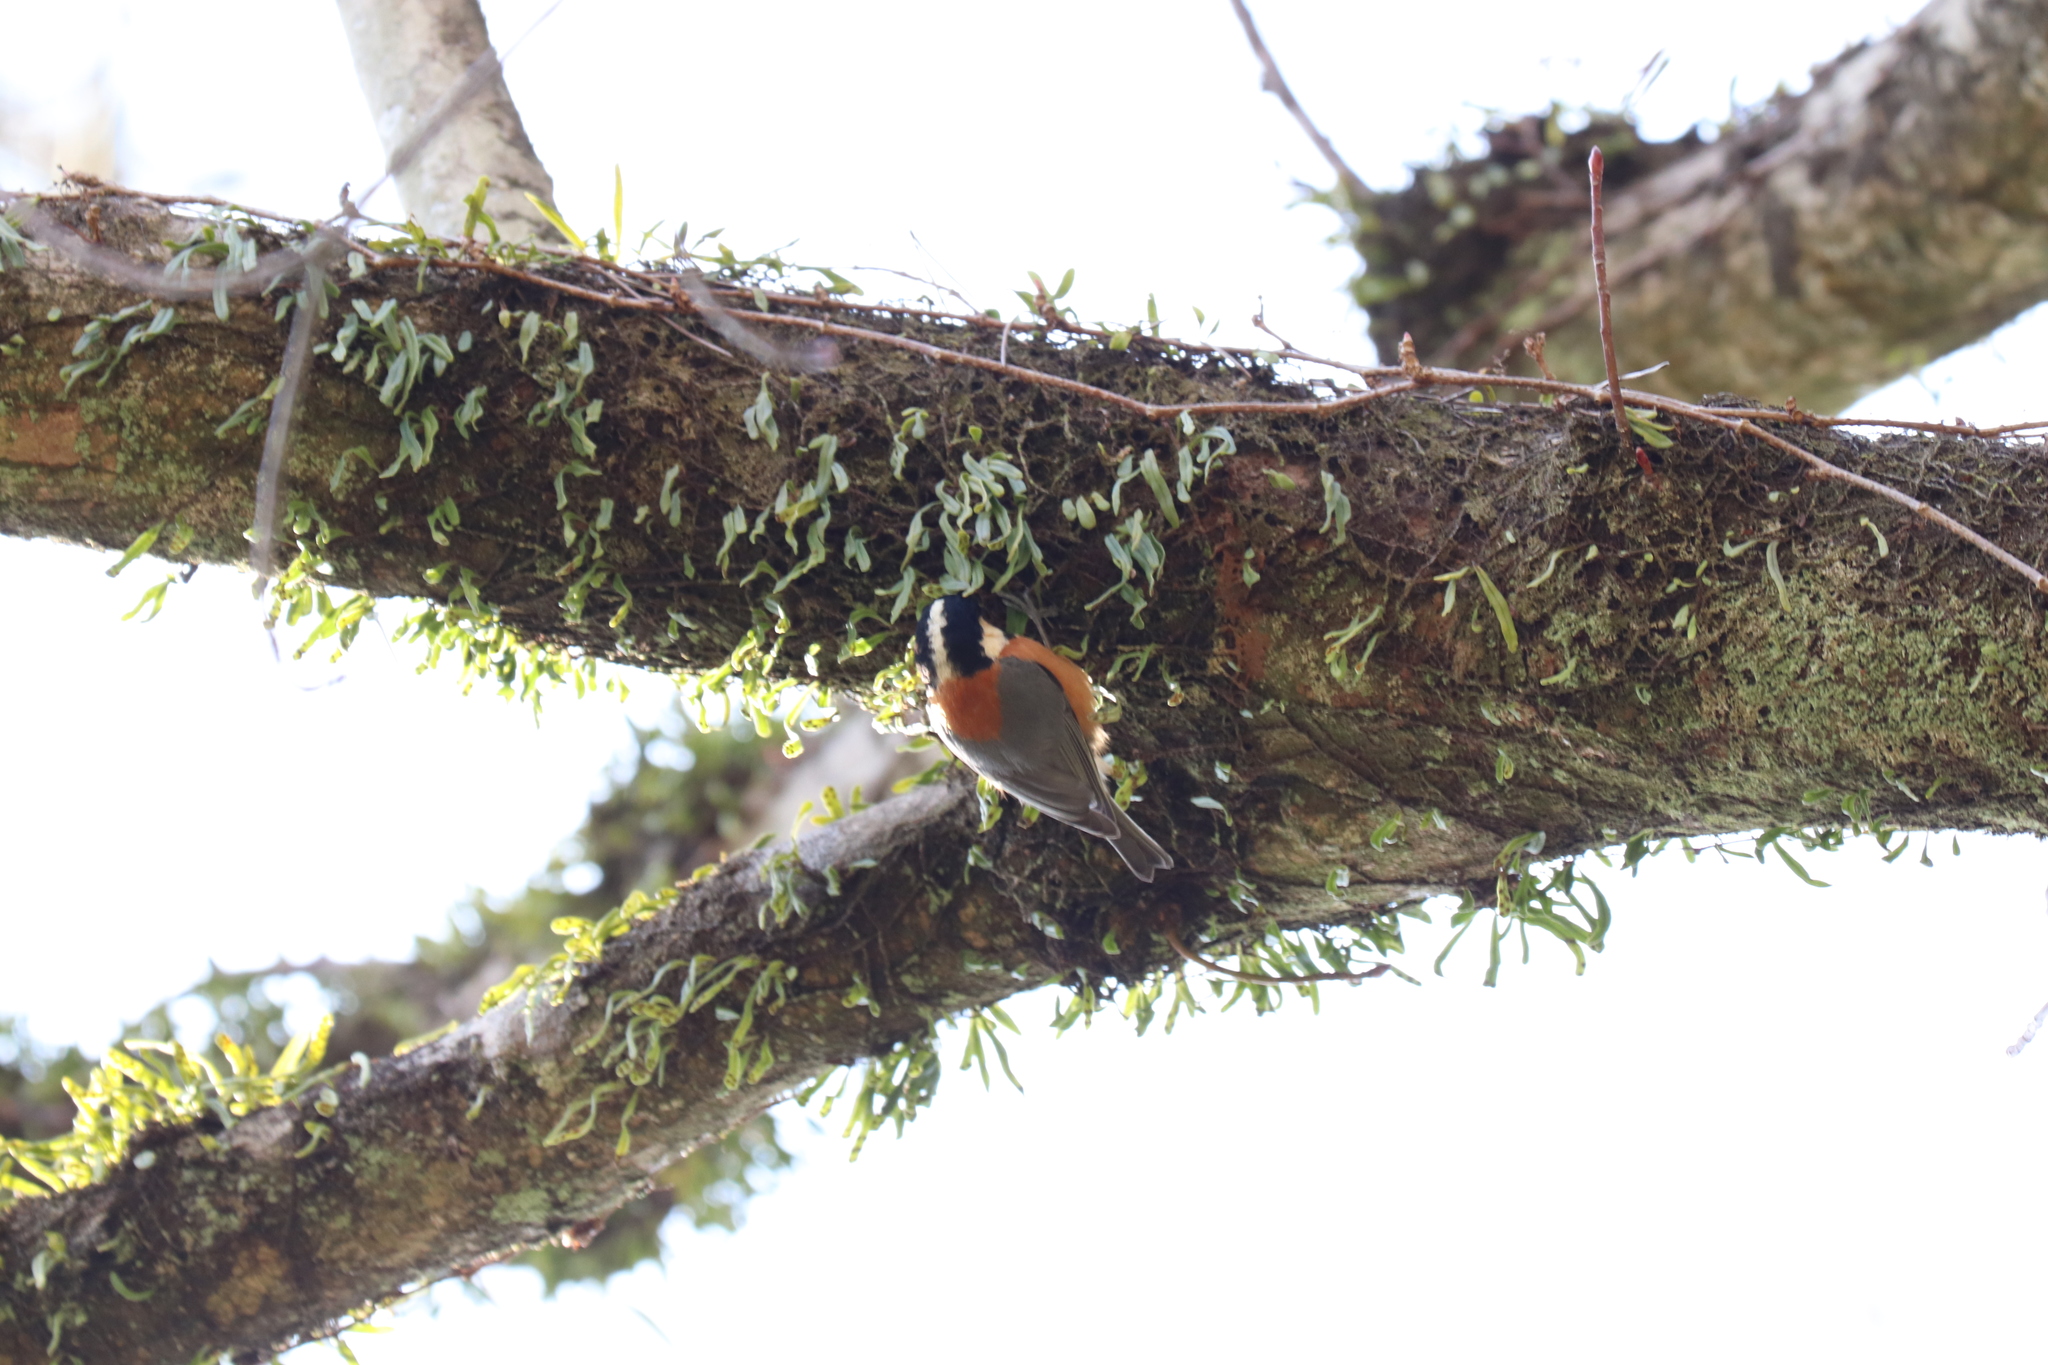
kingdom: Animalia
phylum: Chordata
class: Aves
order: Passeriformes
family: Paridae
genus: Poecile
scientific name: Poecile varius
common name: Varied tit
